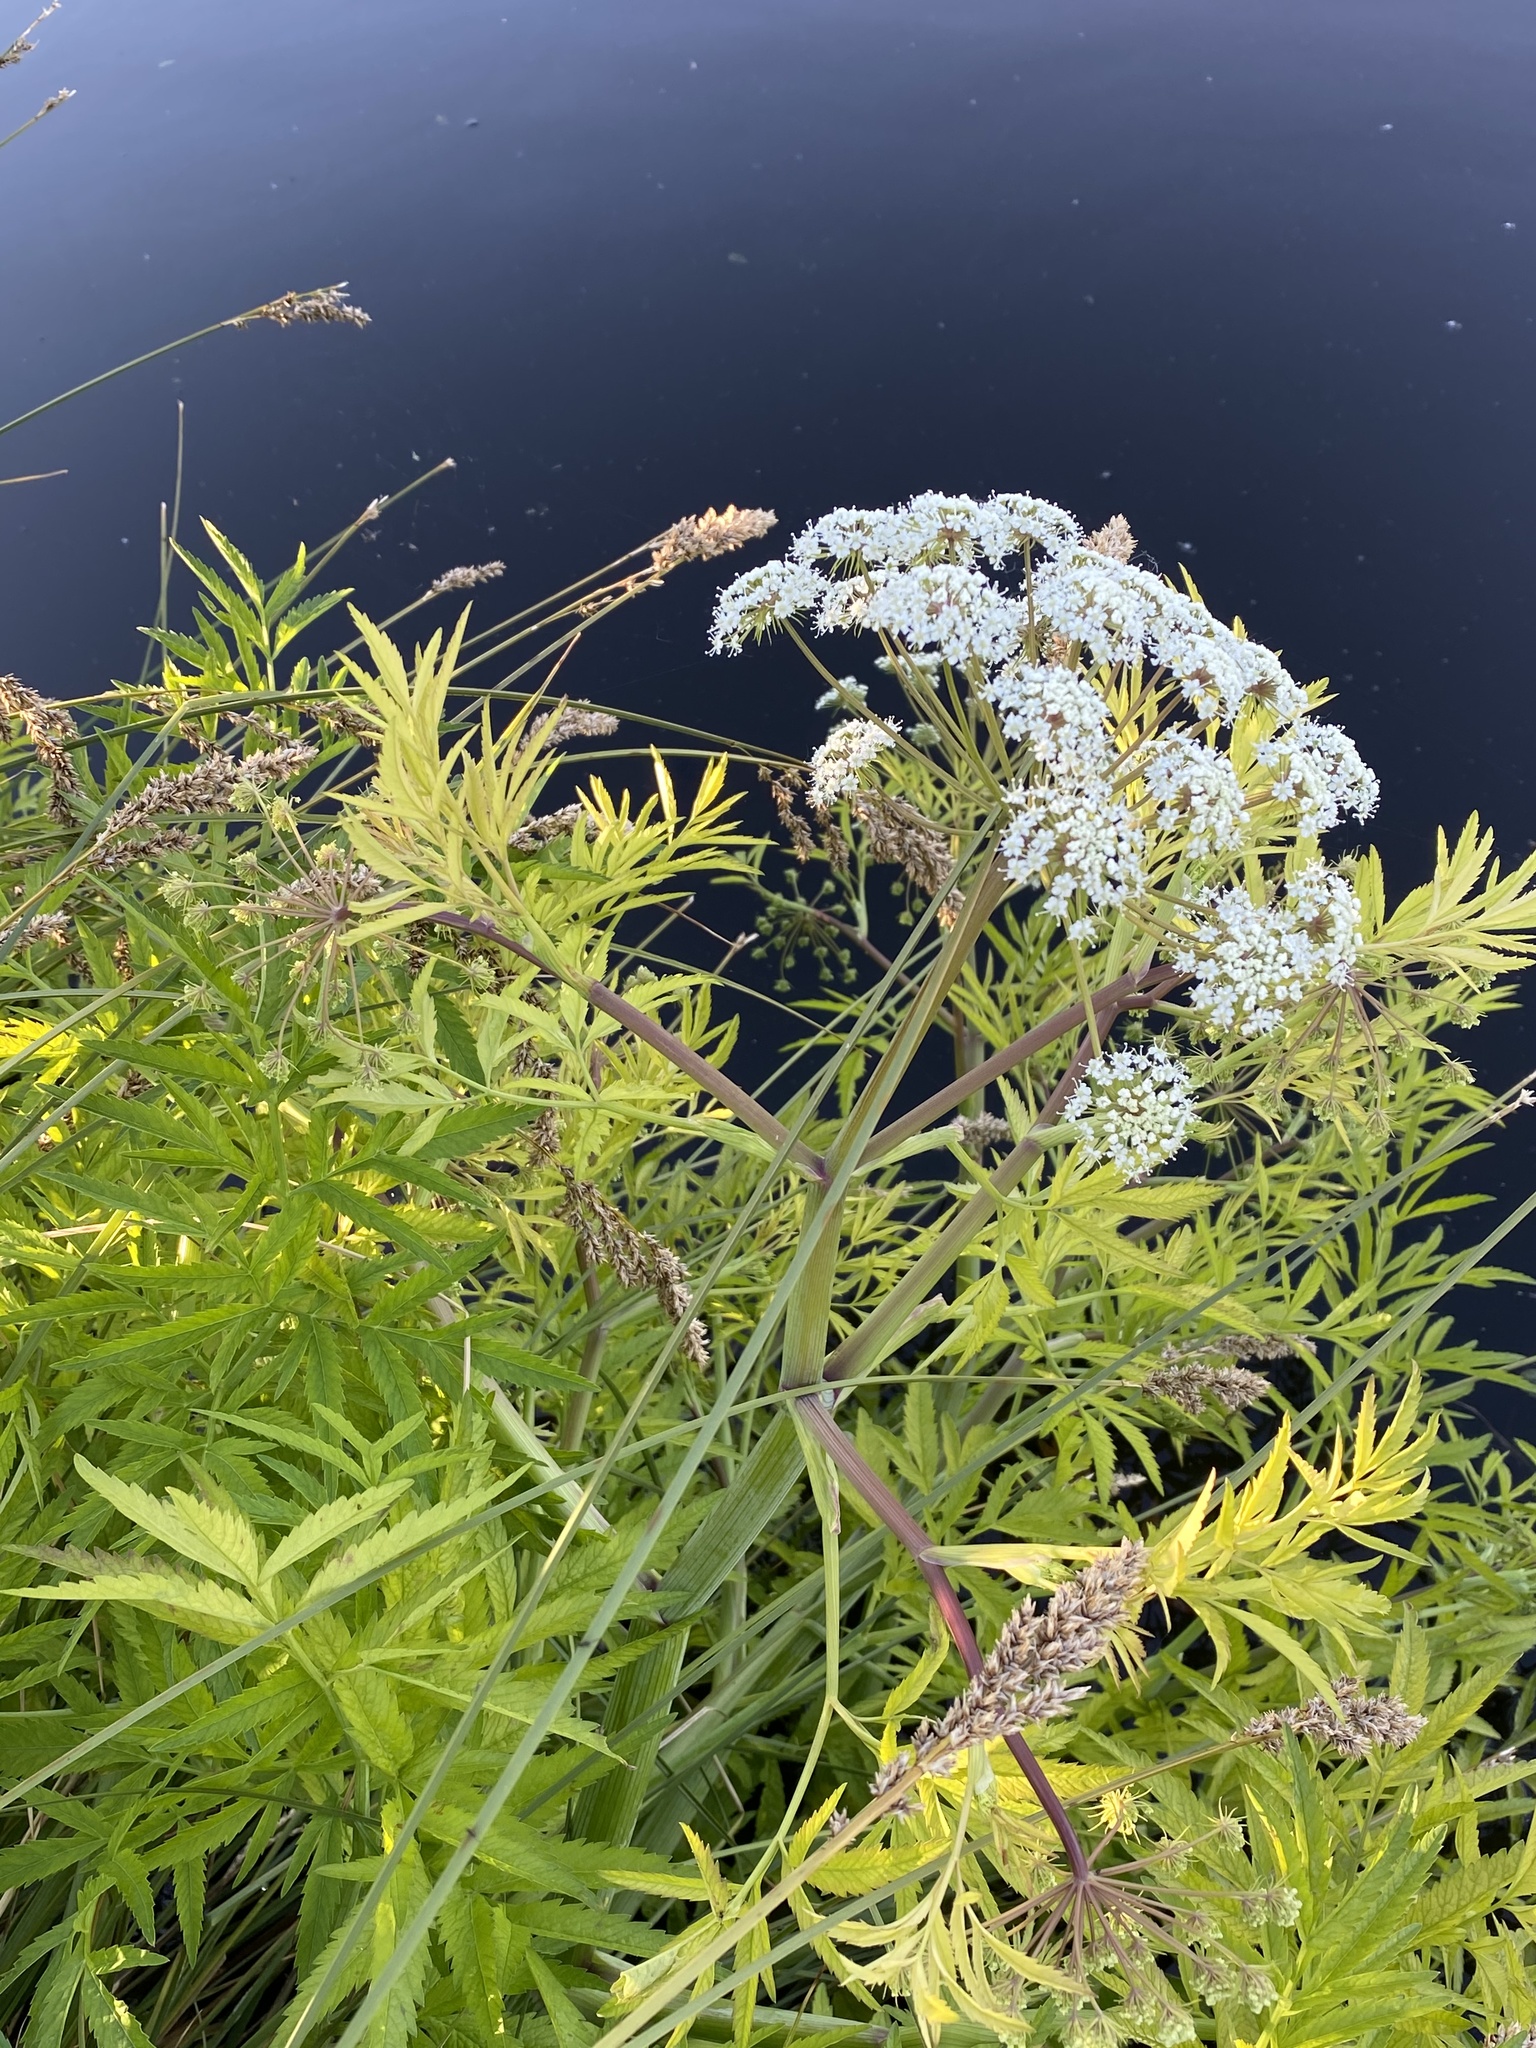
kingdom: Plantae
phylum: Tracheophyta
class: Magnoliopsida
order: Apiales
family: Apiaceae
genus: Cicuta
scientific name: Cicuta virosa
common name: Cowbane
